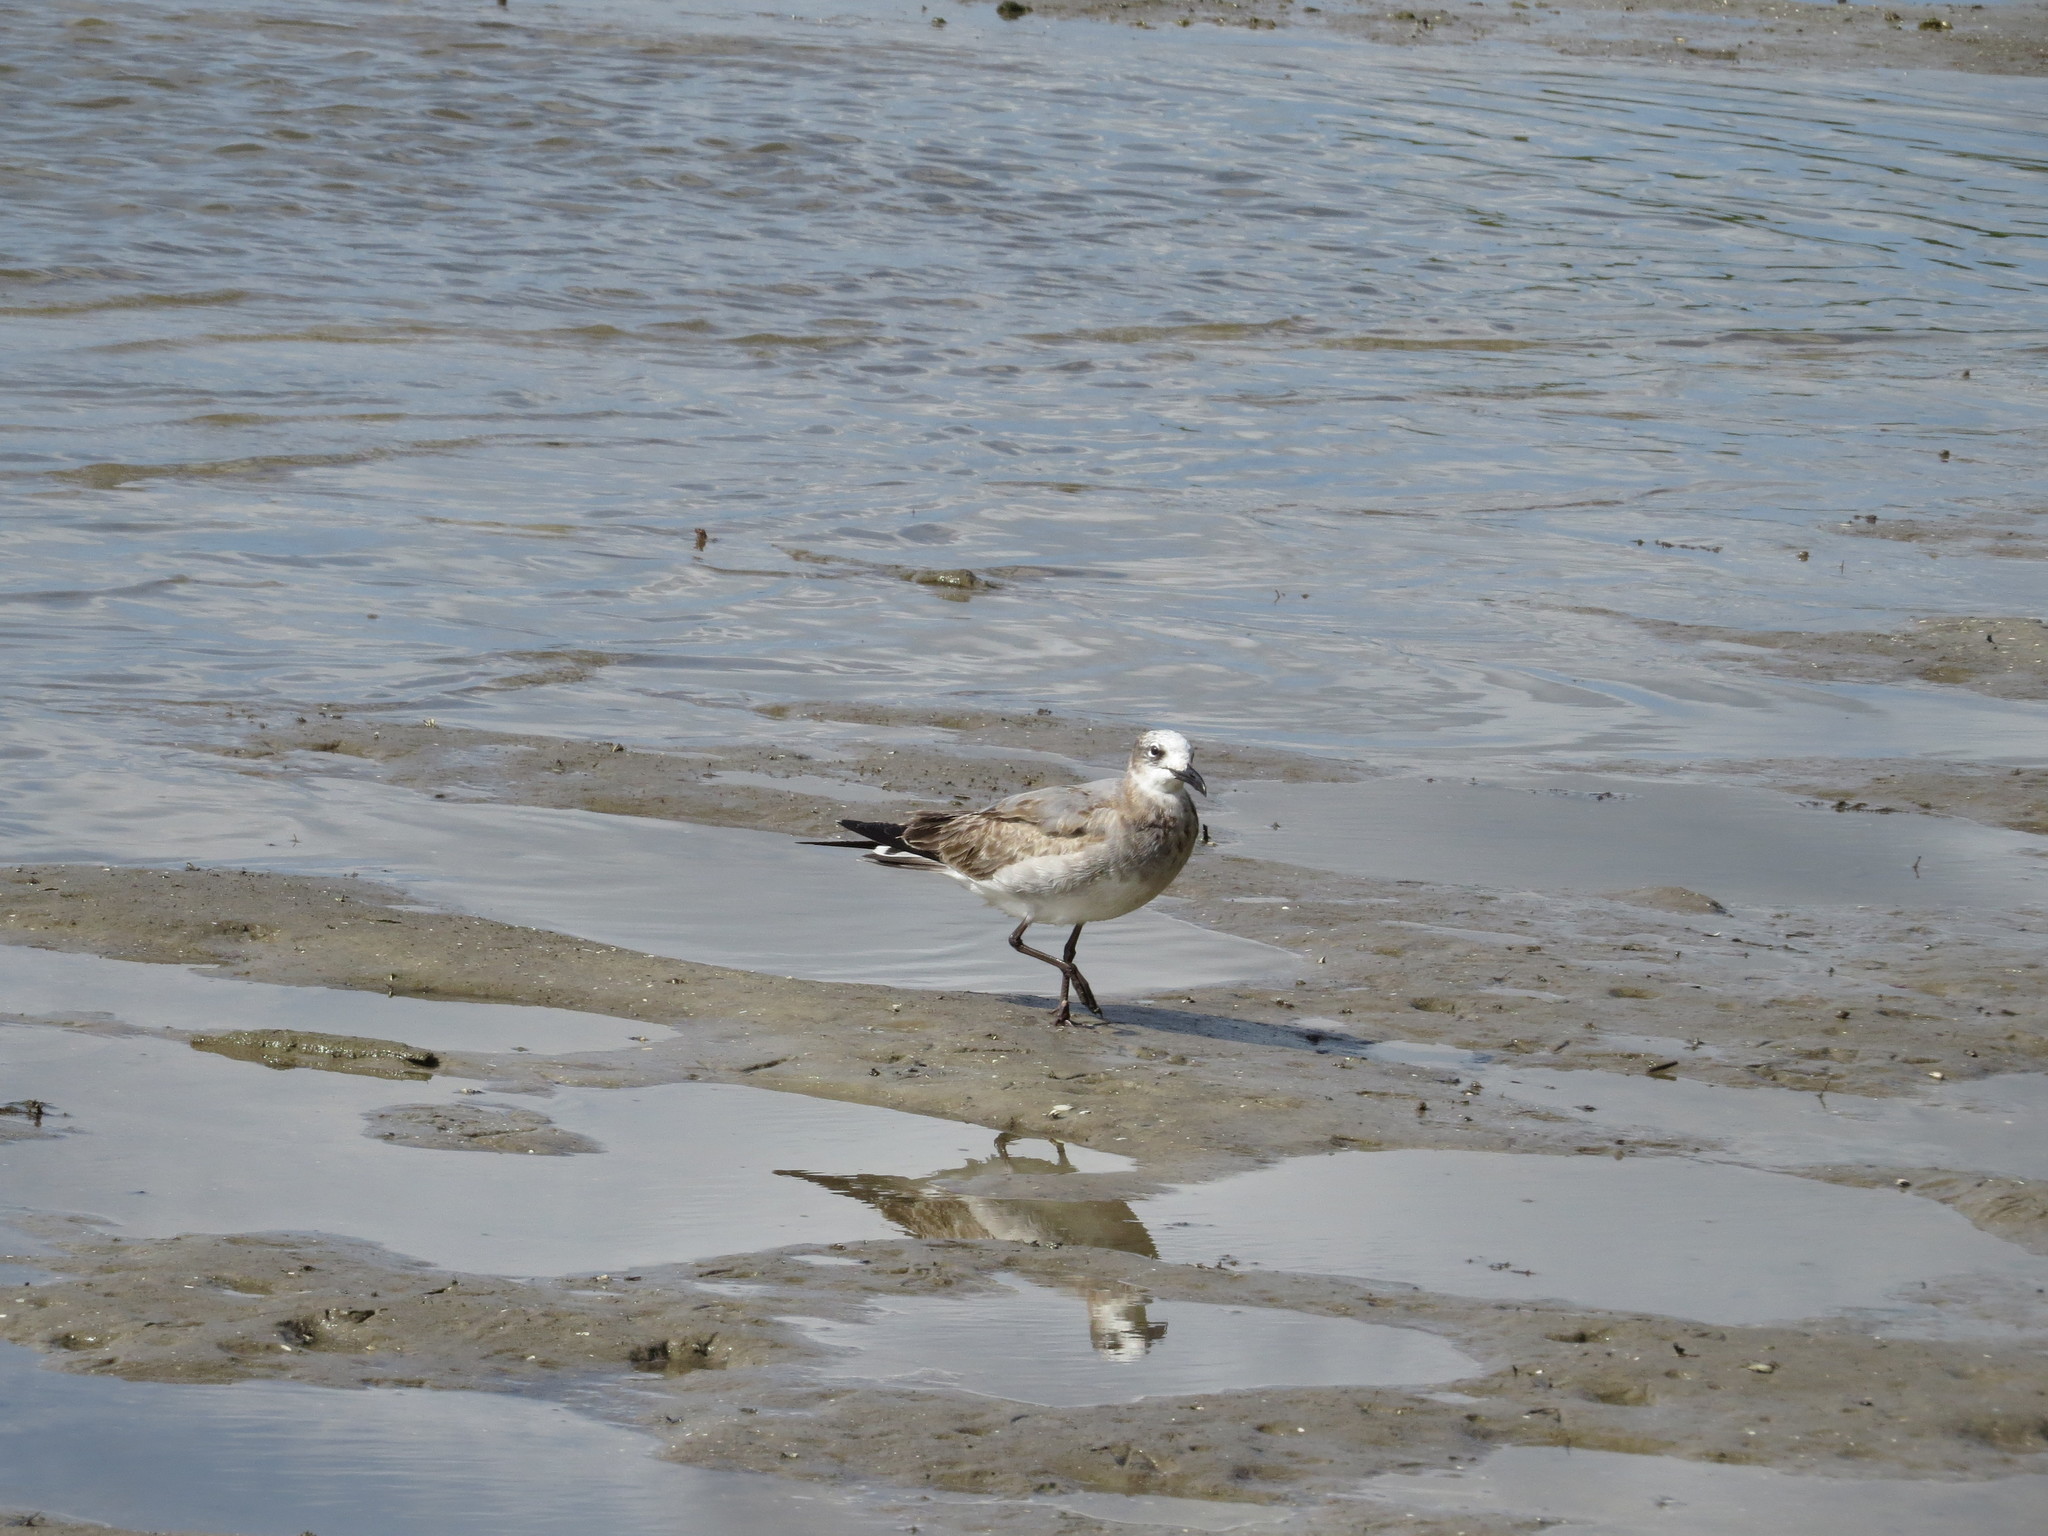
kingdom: Animalia
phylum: Chordata
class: Aves
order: Charadriiformes
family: Laridae
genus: Leucophaeus
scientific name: Leucophaeus atricilla
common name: Laughing gull
